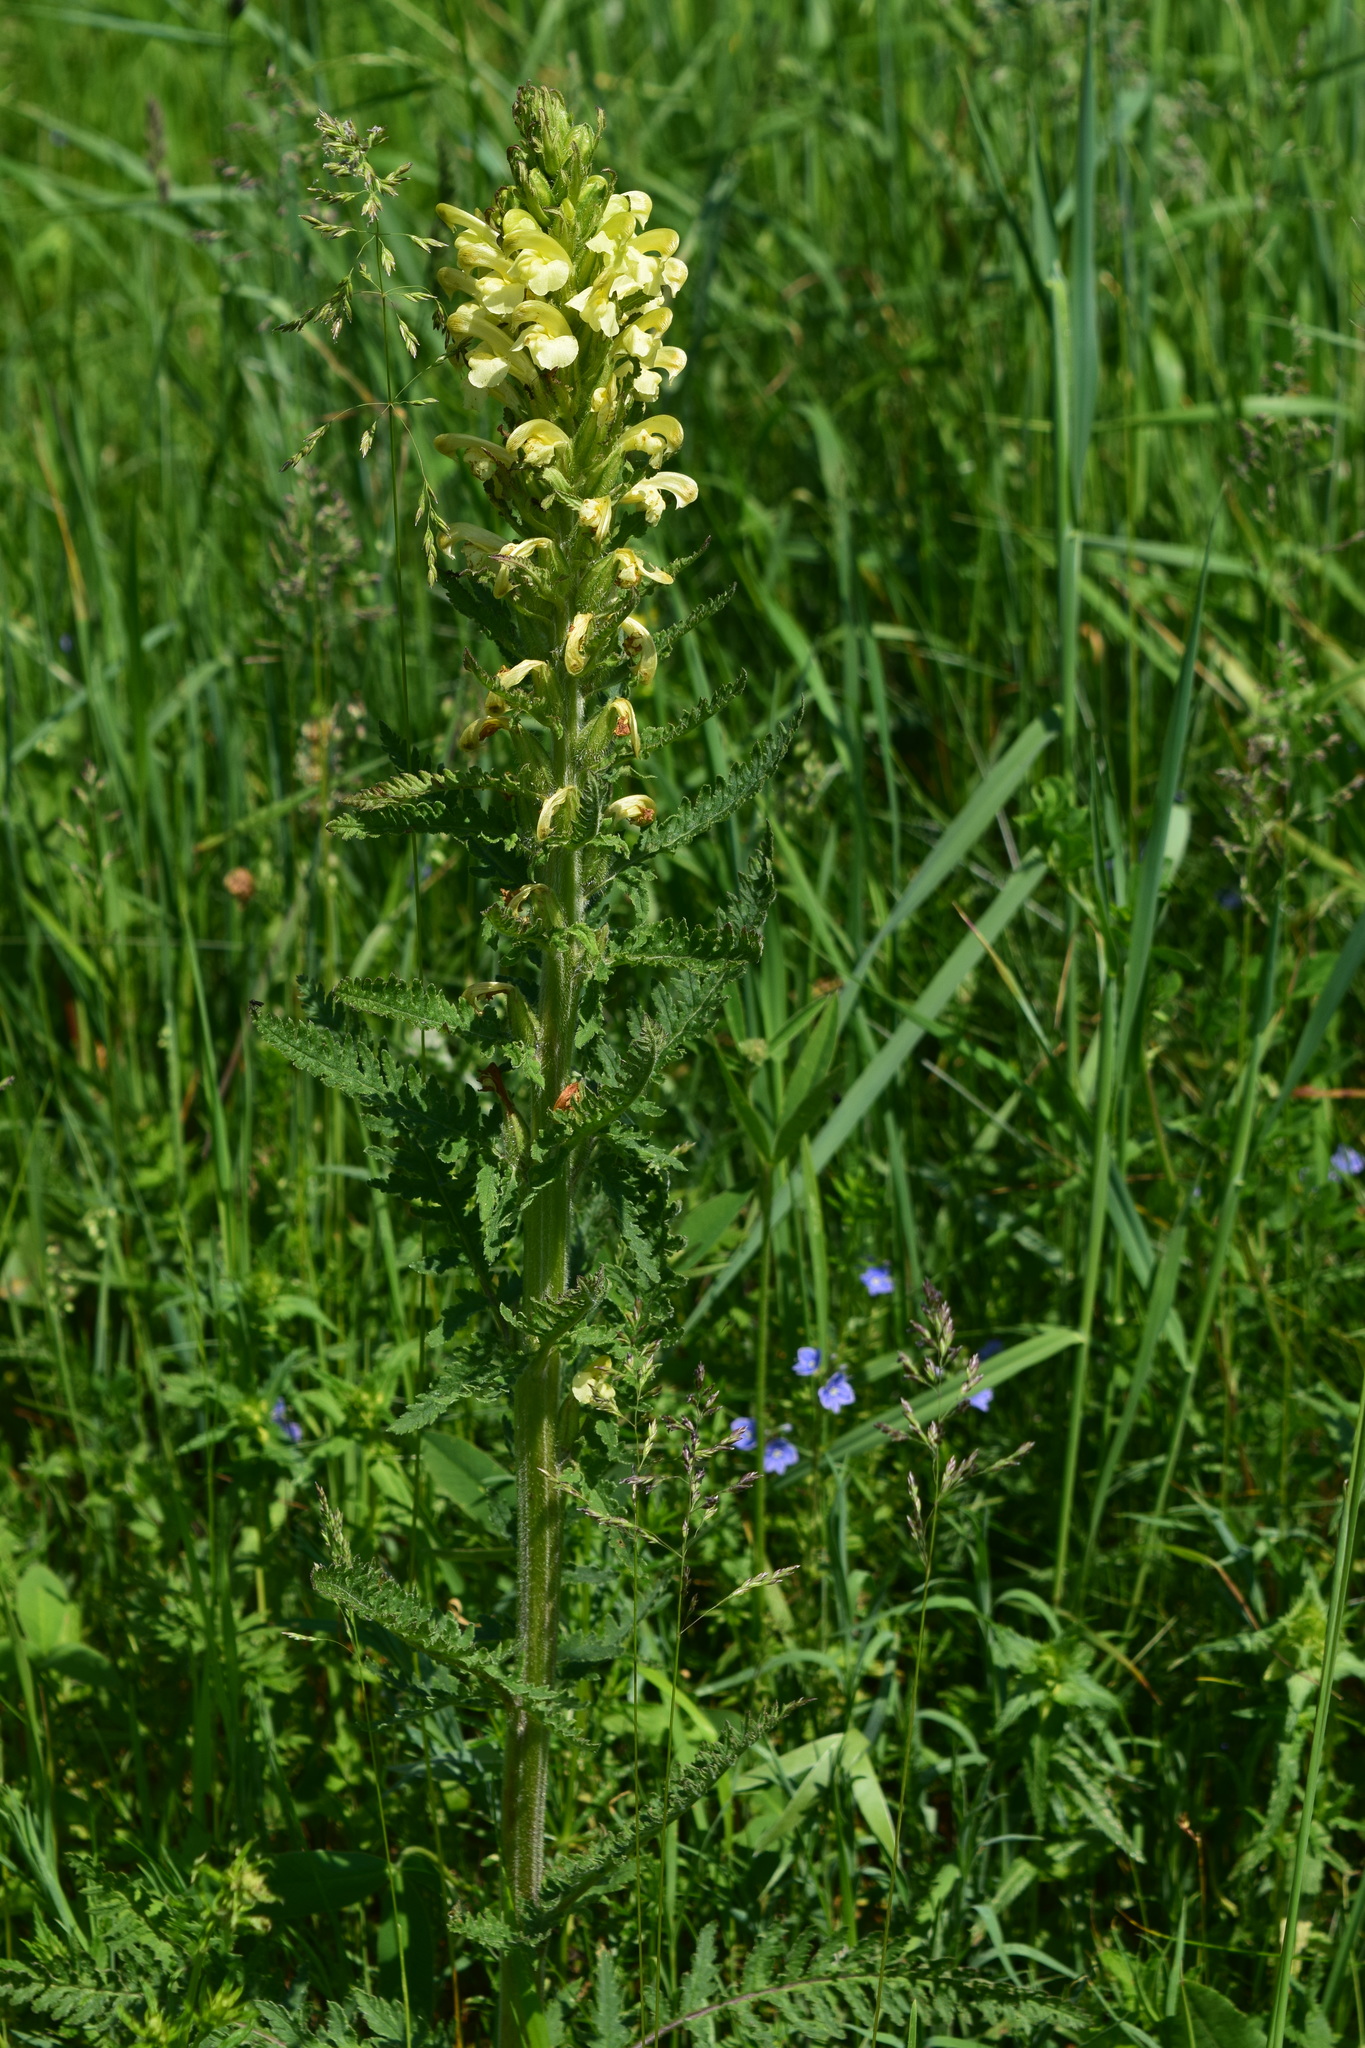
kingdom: Plantae
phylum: Tracheophyta
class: Magnoliopsida
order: Lamiales
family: Orobanchaceae
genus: Pedicularis
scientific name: Pedicularis kaufmannii
